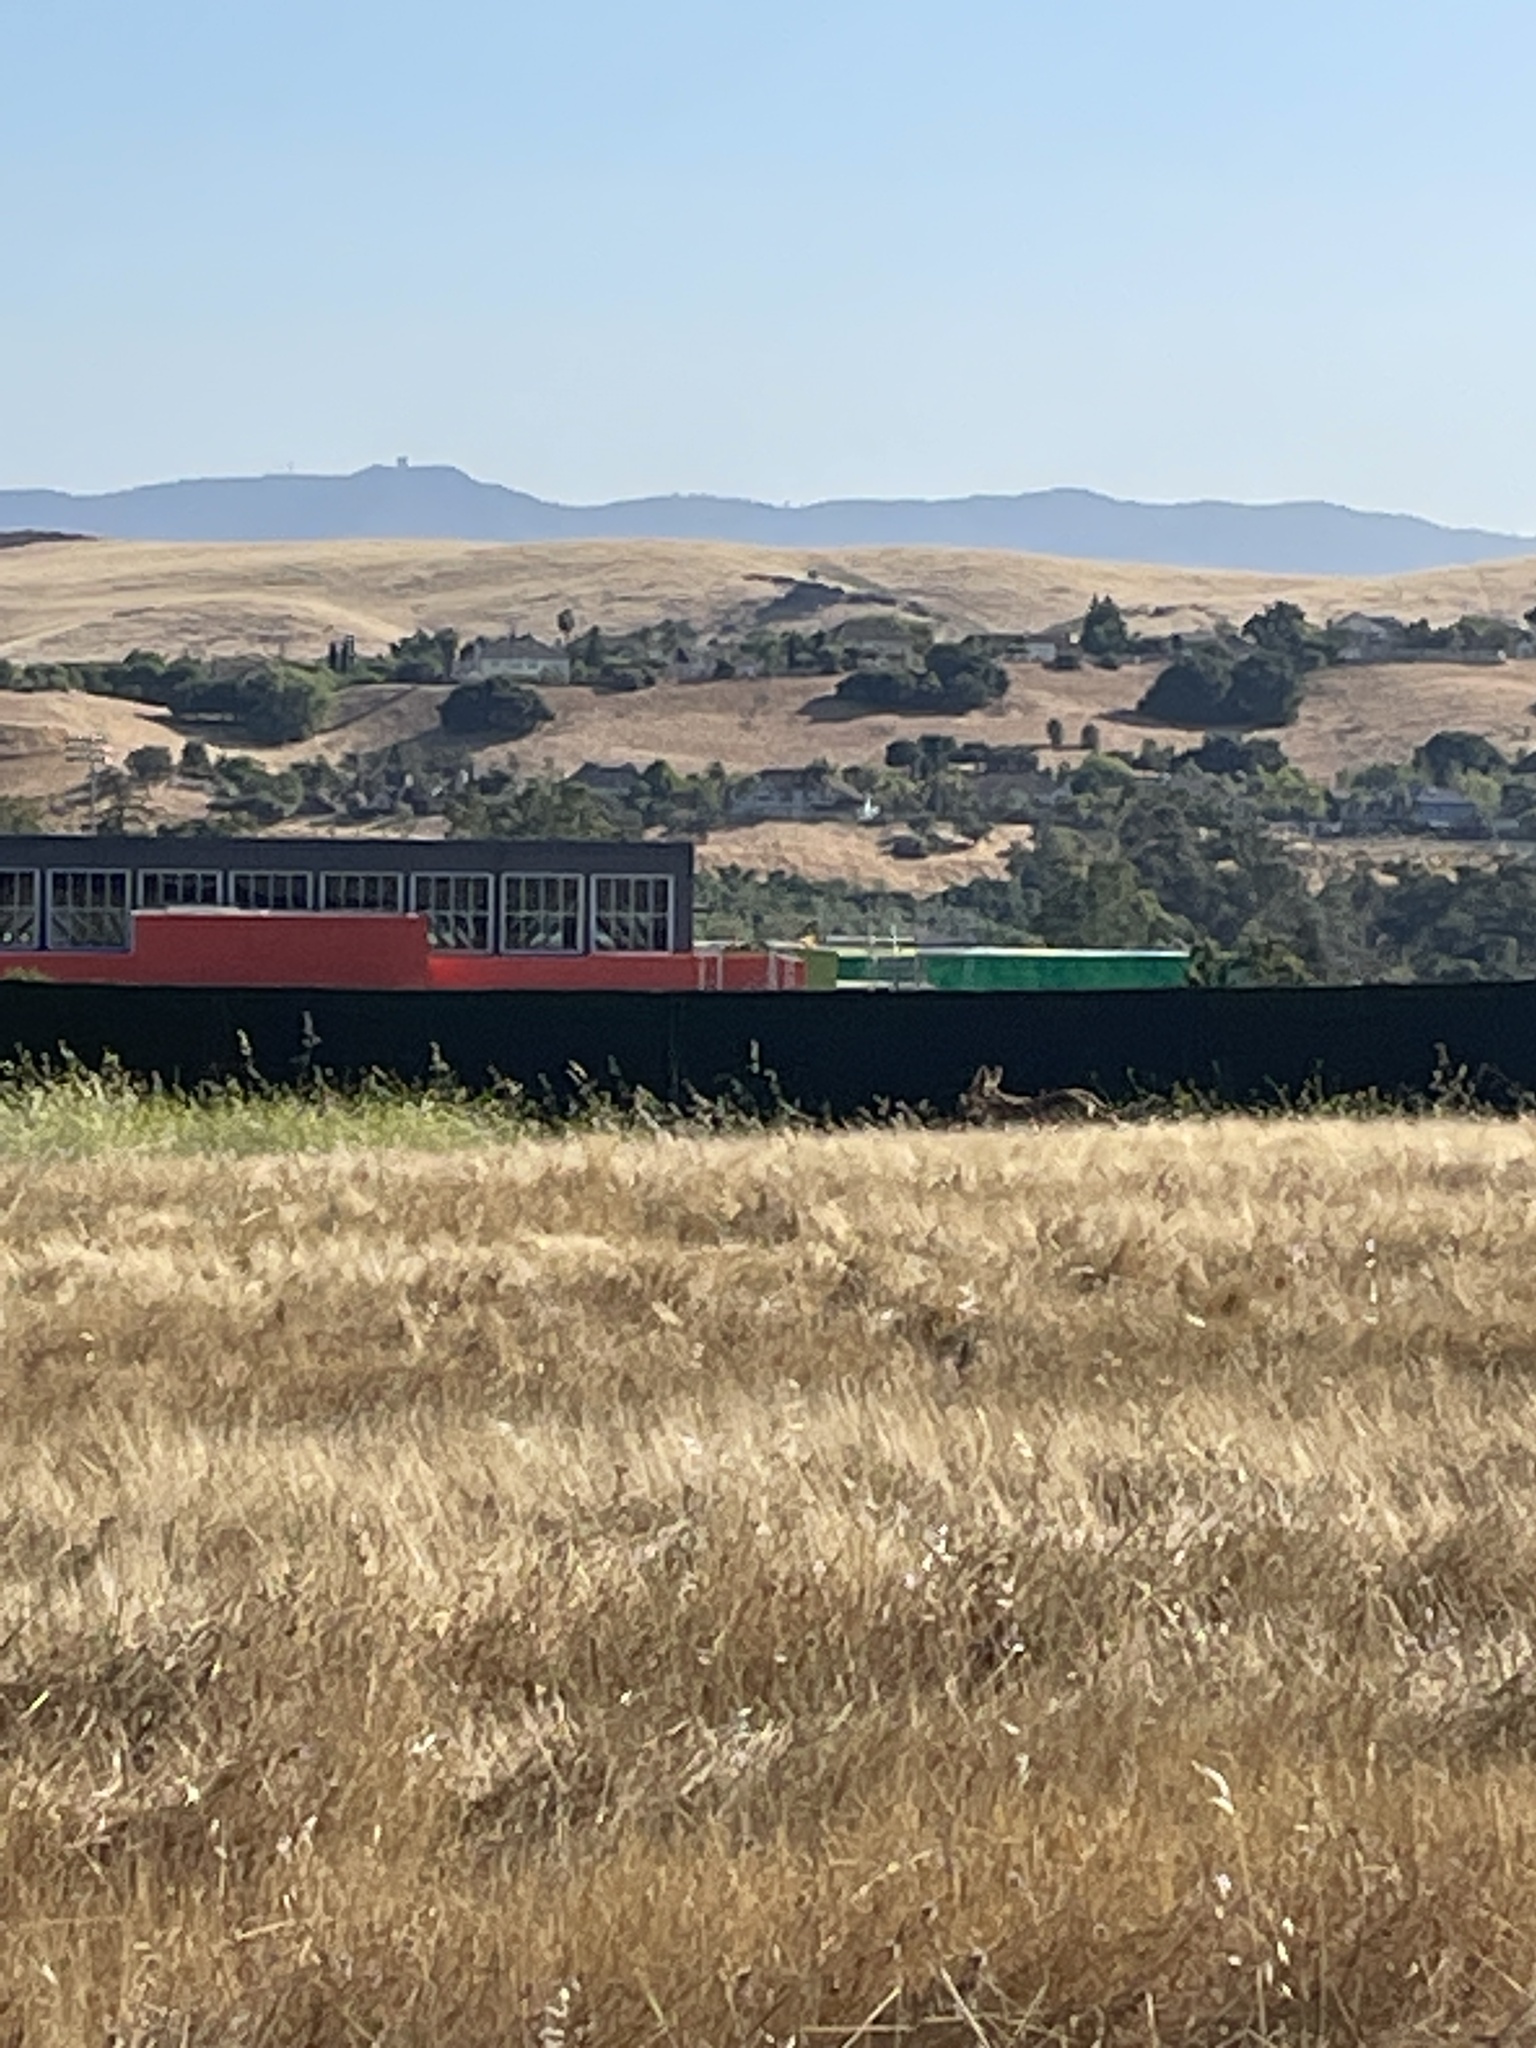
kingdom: Animalia
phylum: Chordata
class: Mammalia
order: Carnivora
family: Canidae
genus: Canis
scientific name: Canis latrans
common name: Coyote
